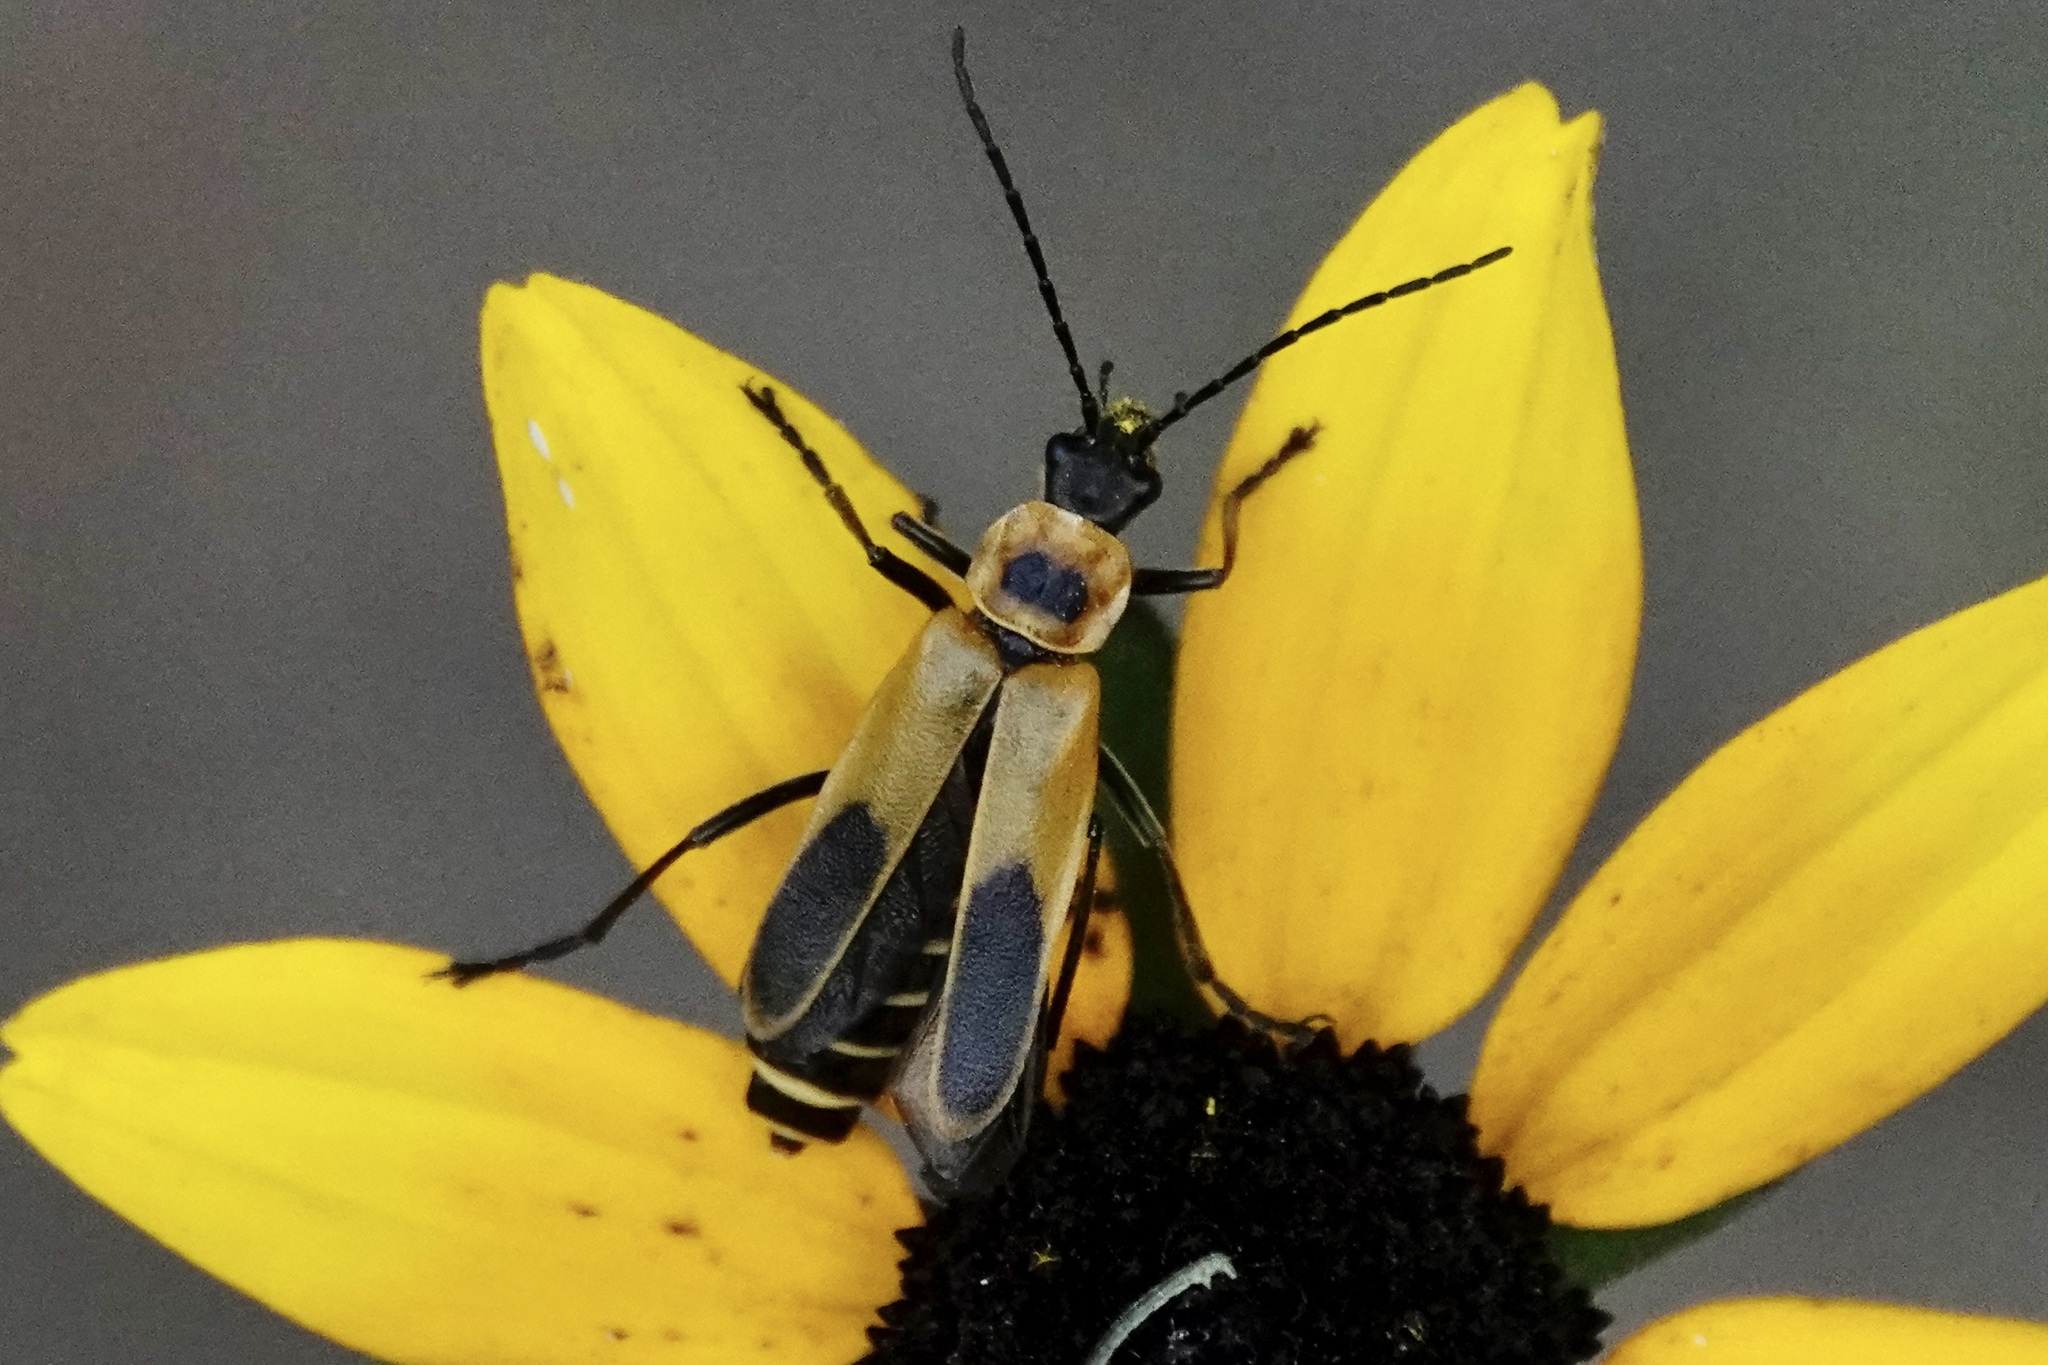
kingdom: Animalia
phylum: Arthropoda
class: Insecta
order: Coleoptera
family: Cantharidae
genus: Chauliognathus
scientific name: Chauliognathus pensylvanicus
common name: Goldenrod soldier beetle
